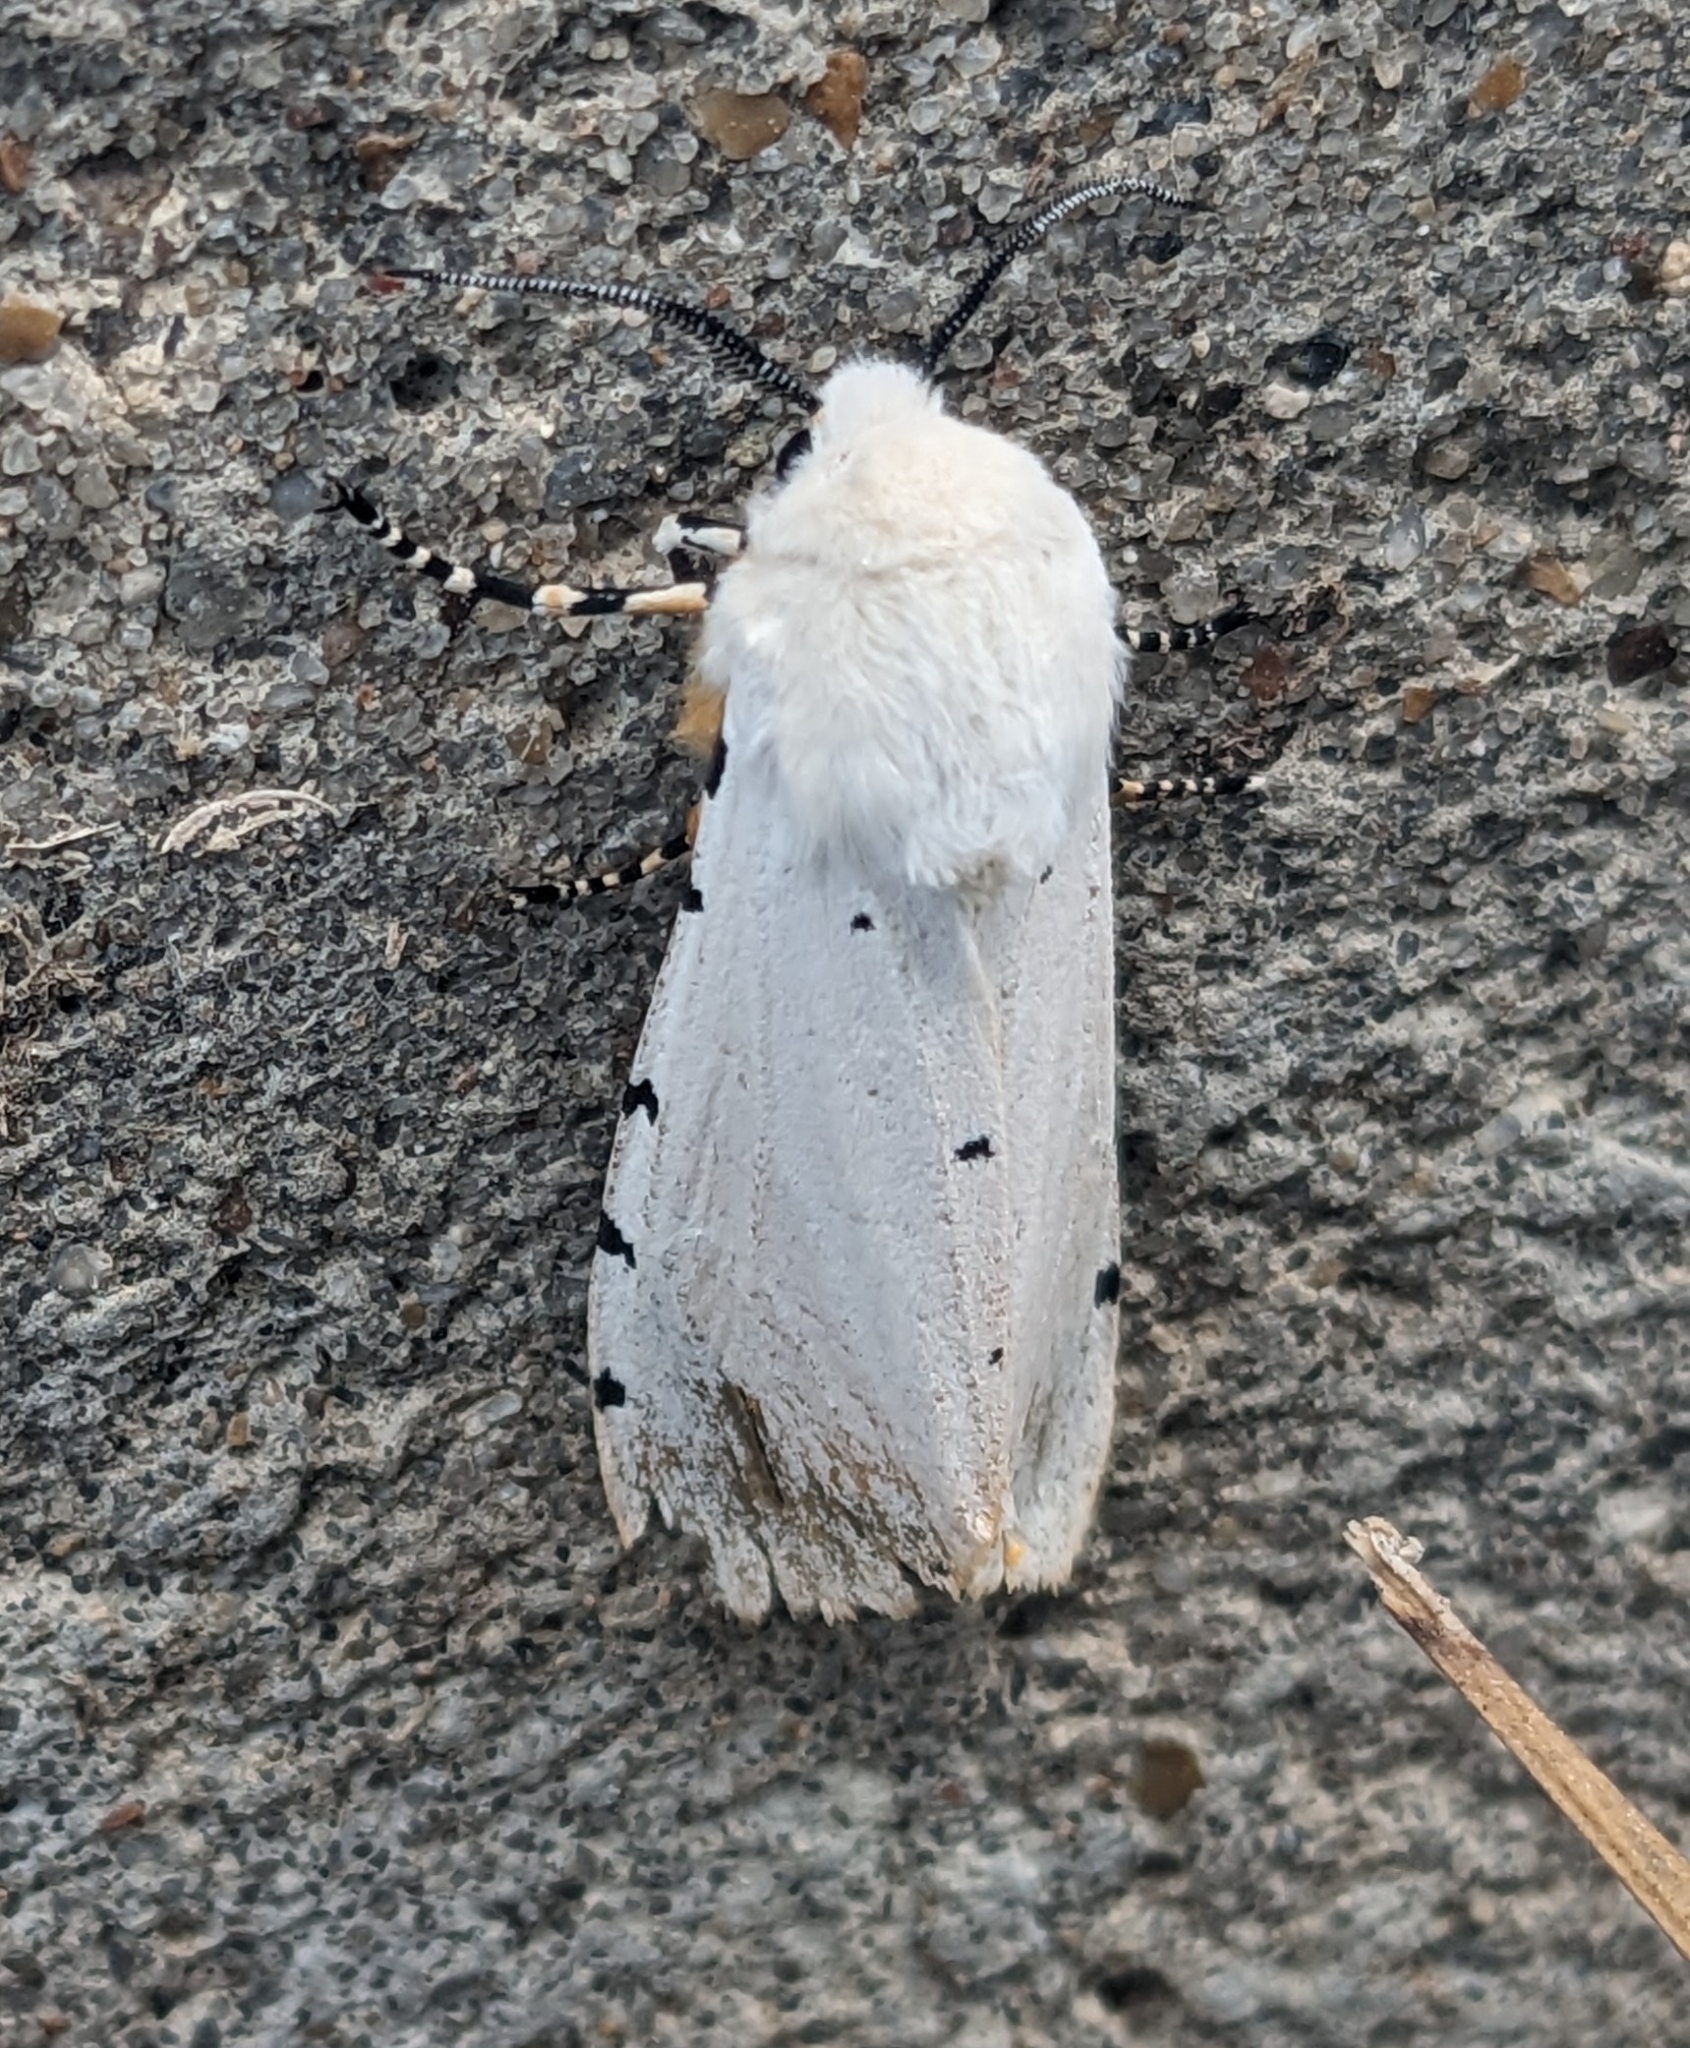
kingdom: Animalia
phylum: Arthropoda
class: Insecta
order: Lepidoptera
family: Erebidae
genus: Estigmene
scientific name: Estigmene acrea
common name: Salt marsh moth
